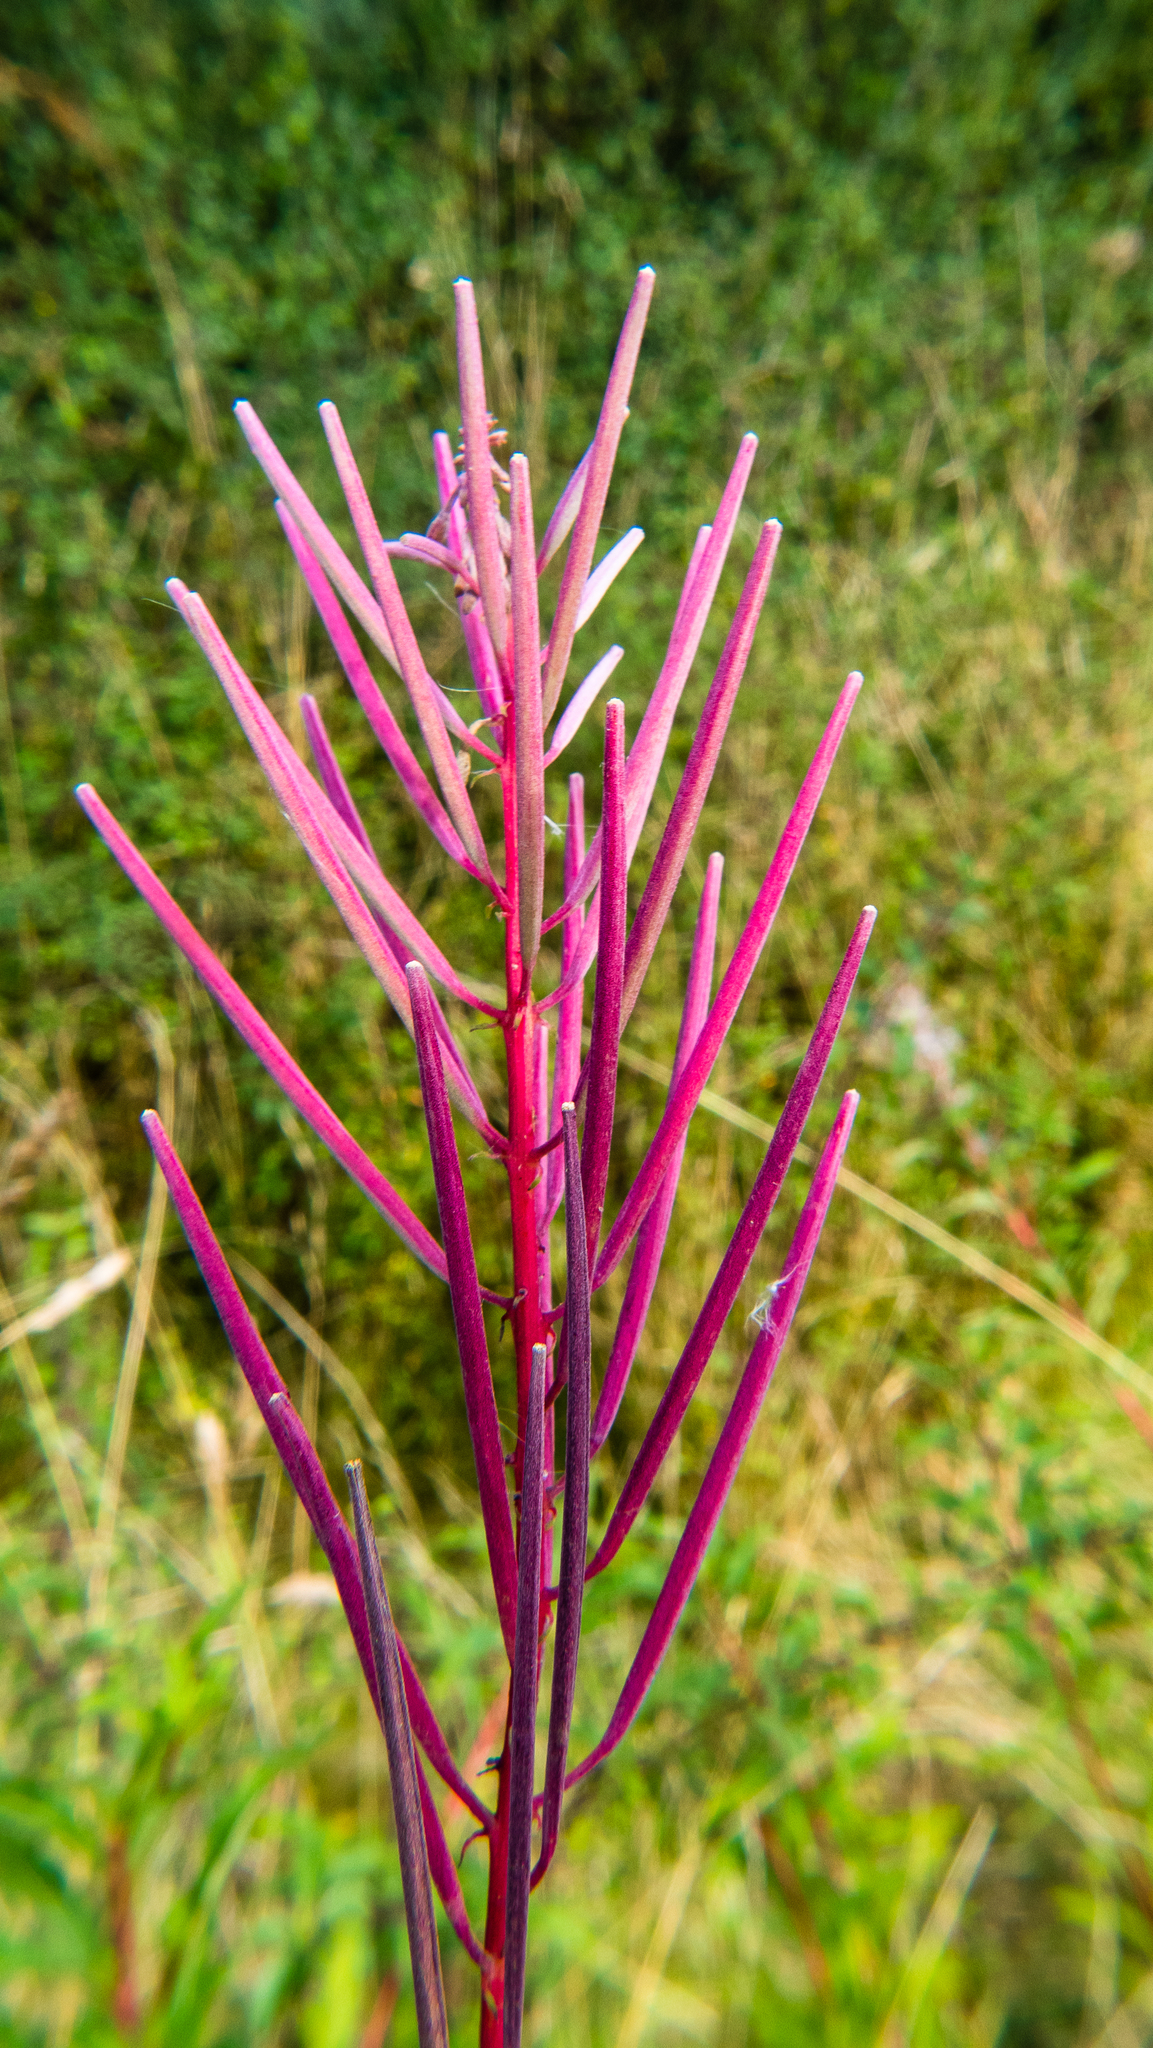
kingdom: Plantae
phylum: Tracheophyta
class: Magnoliopsida
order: Myrtales
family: Onagraceae
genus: Chamaenerion
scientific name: Chamaenerion angustifolium
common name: Fireweed
